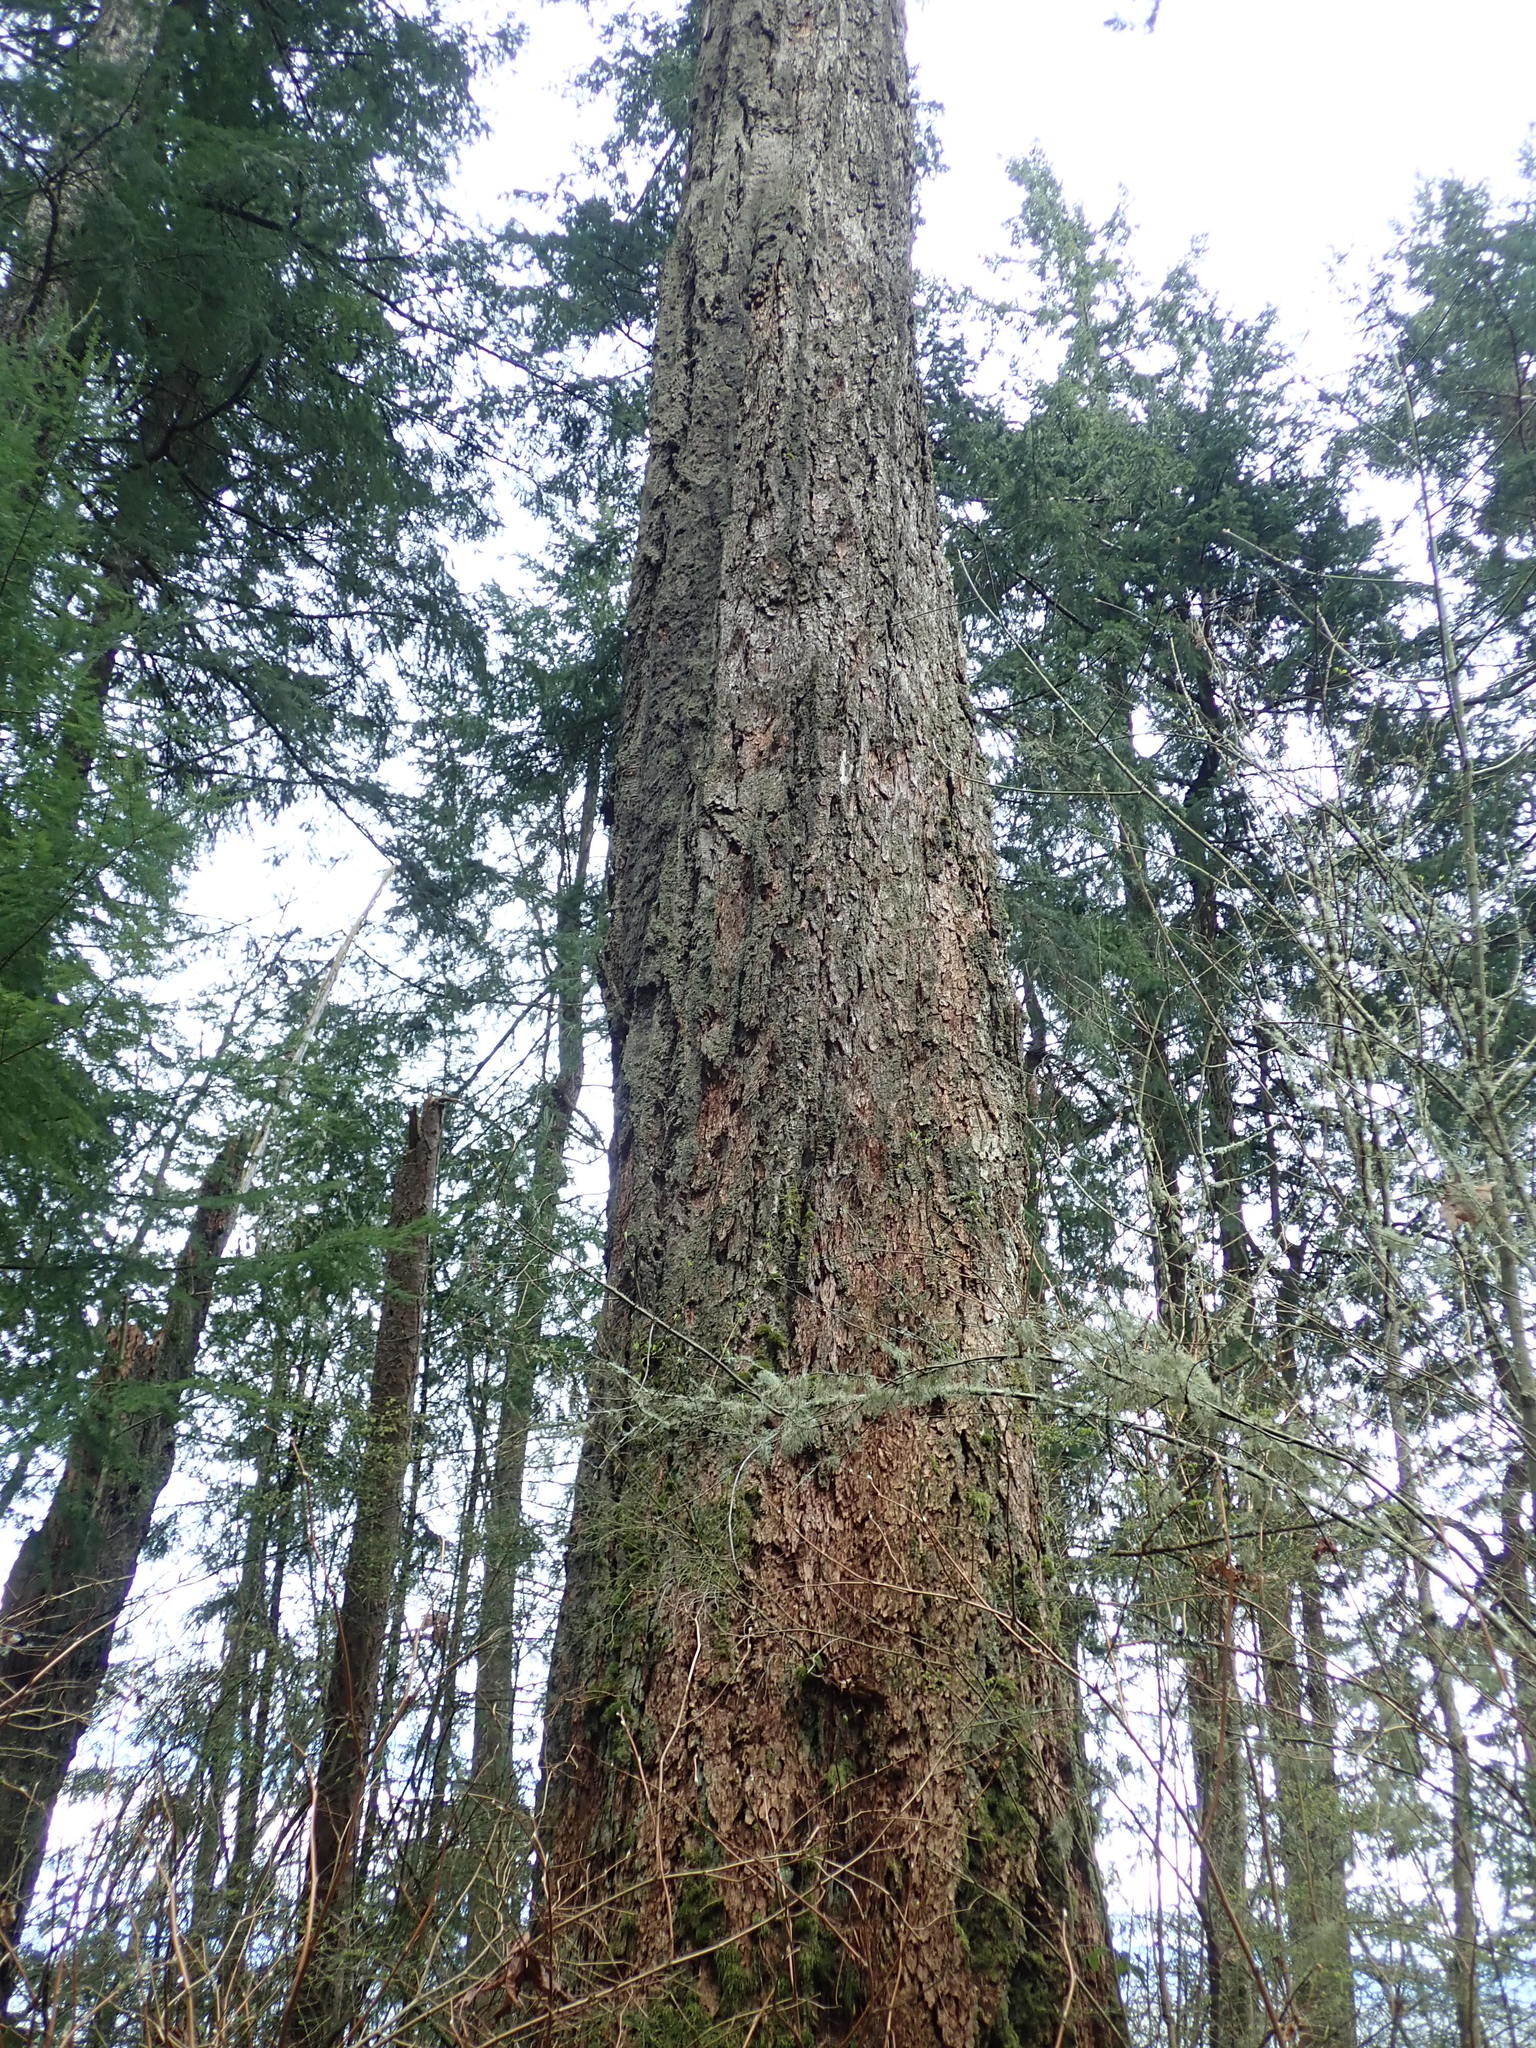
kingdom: Plantae
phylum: Tracheophyta
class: Pinopsida
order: Pinales
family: Pinaceae
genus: Pseudotsuga
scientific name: Pseudotsuga menziesii
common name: Douglas fir
